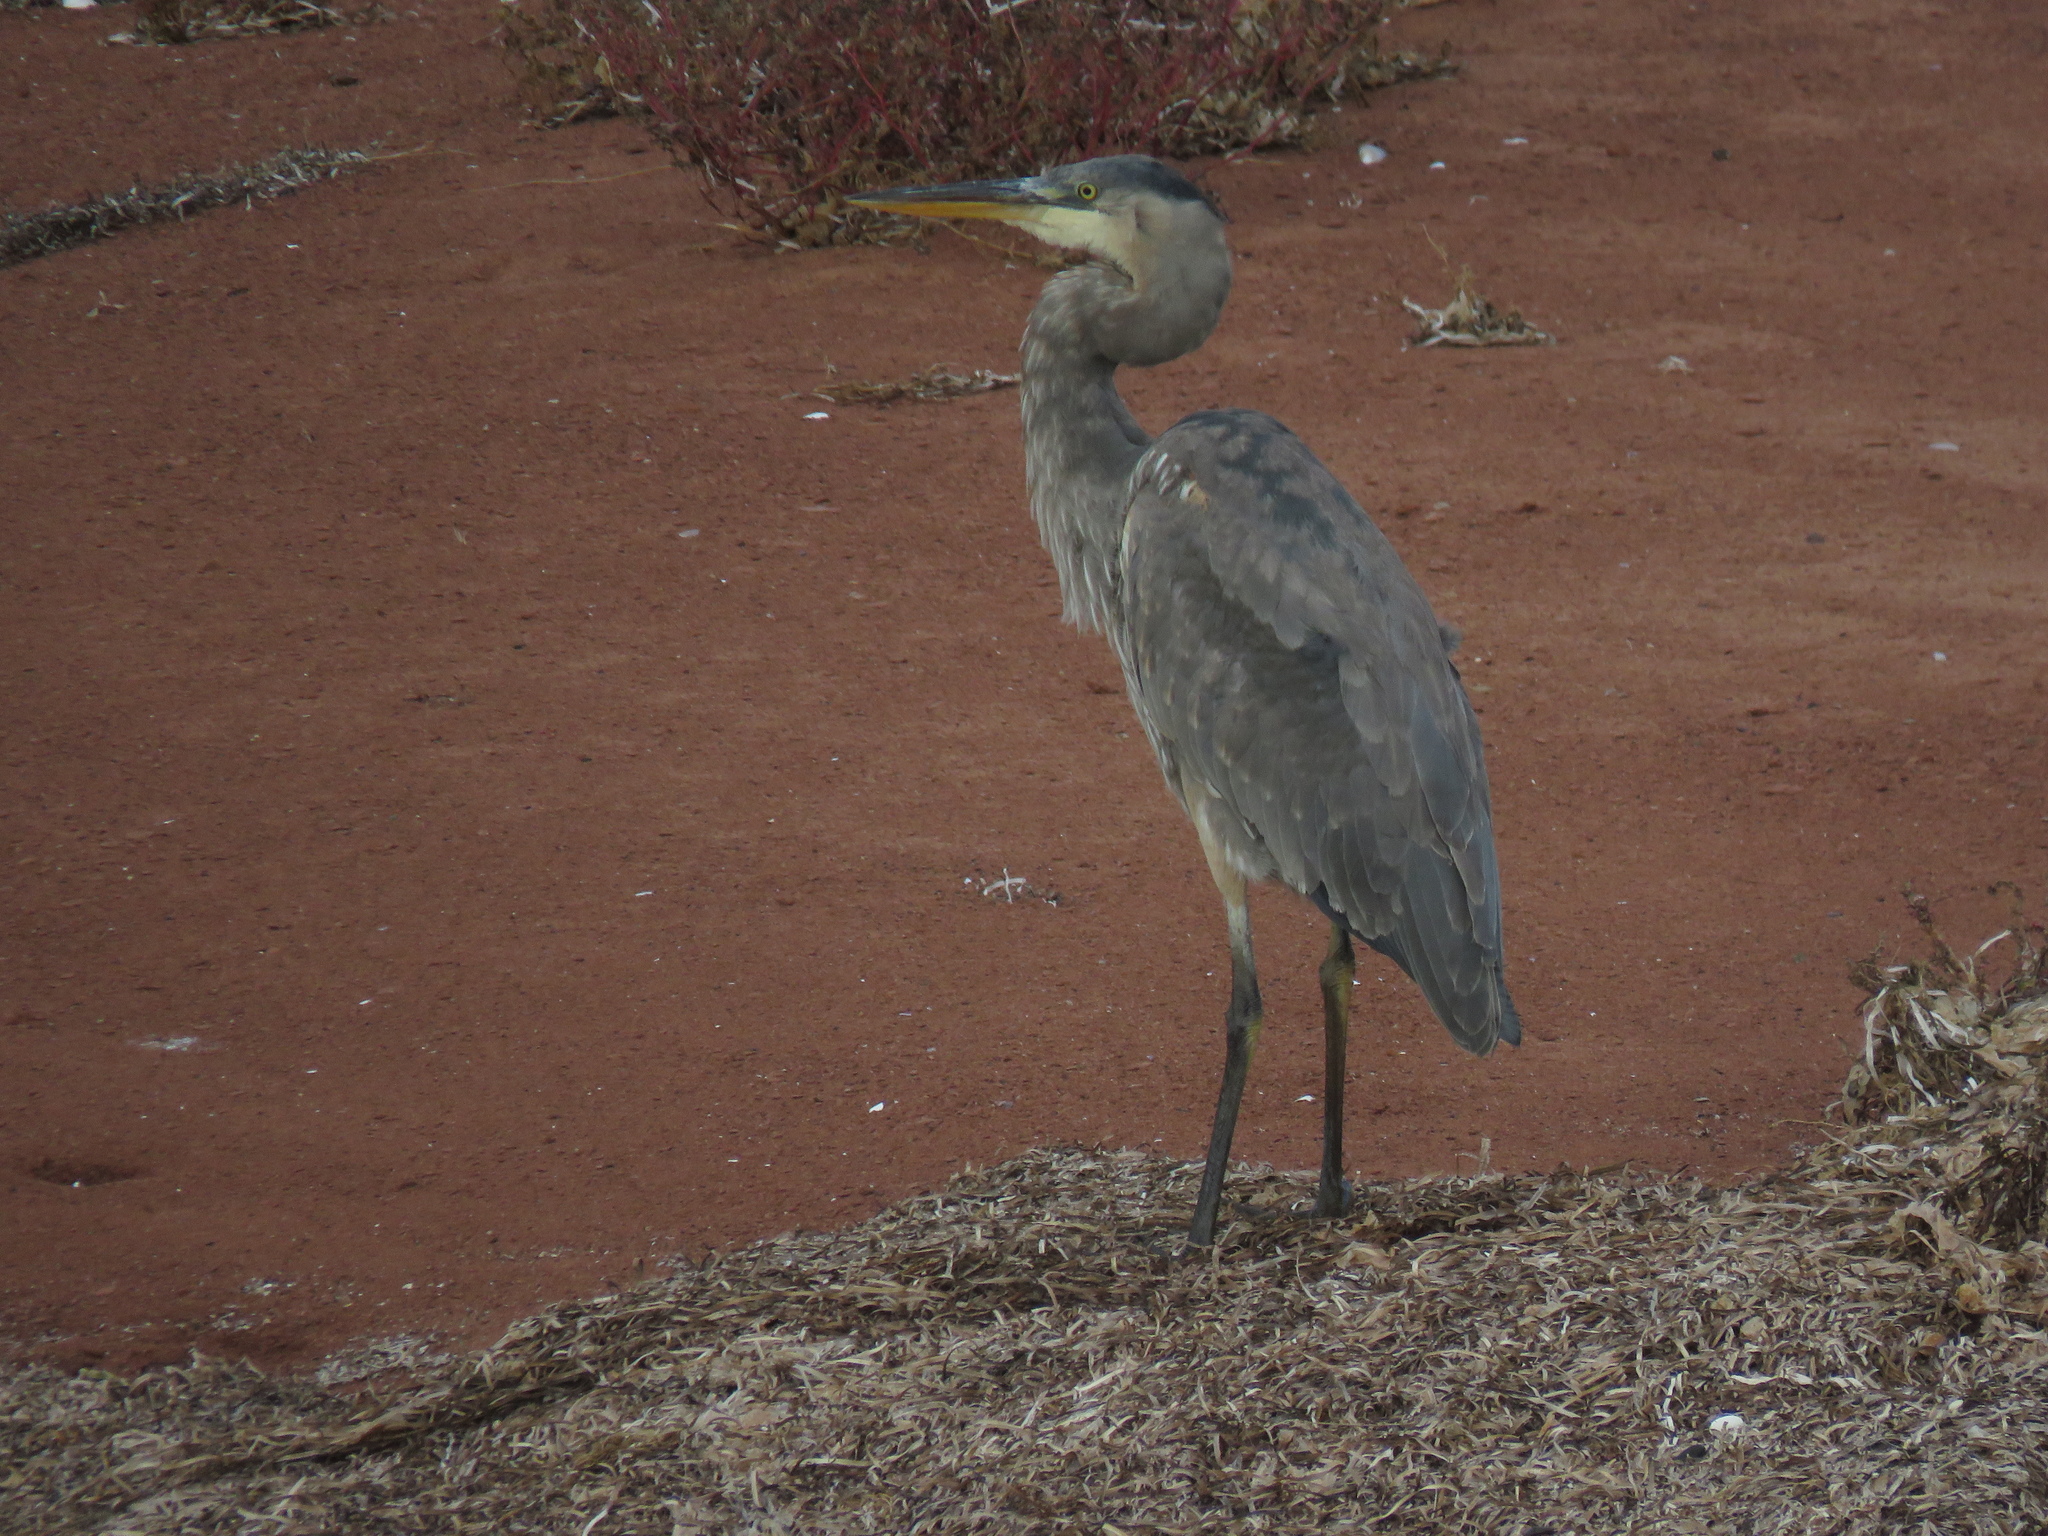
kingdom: Animalia
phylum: Chordata
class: Aves
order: Pelecaniformes
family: Ardeidae
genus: Ardea
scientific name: Ardea herodias
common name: Great blue heron
